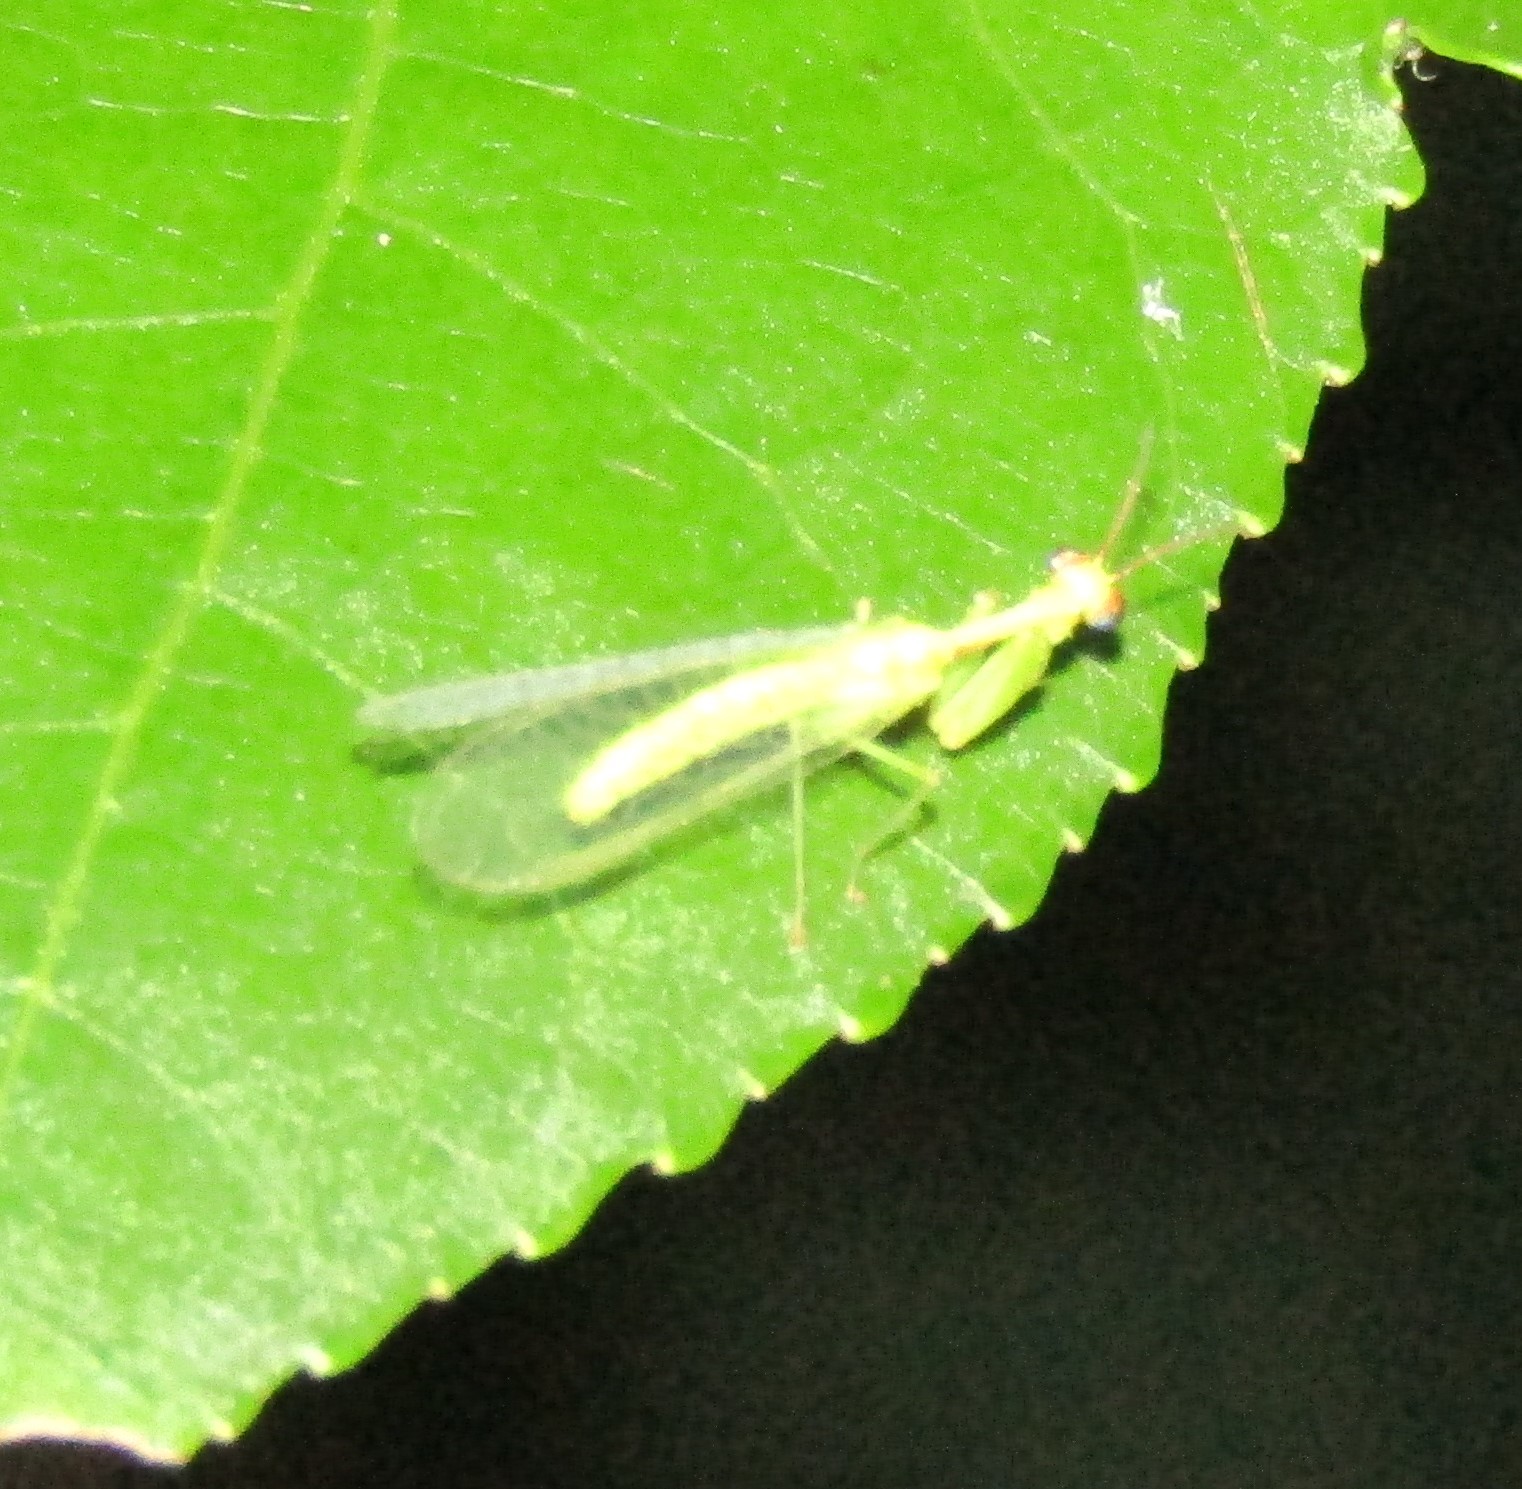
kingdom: Animalia
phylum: Arthropoda
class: Insecta
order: Neuroptera
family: Mantispidae
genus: Zeugomantispa
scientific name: Zeugomantispa minuta
